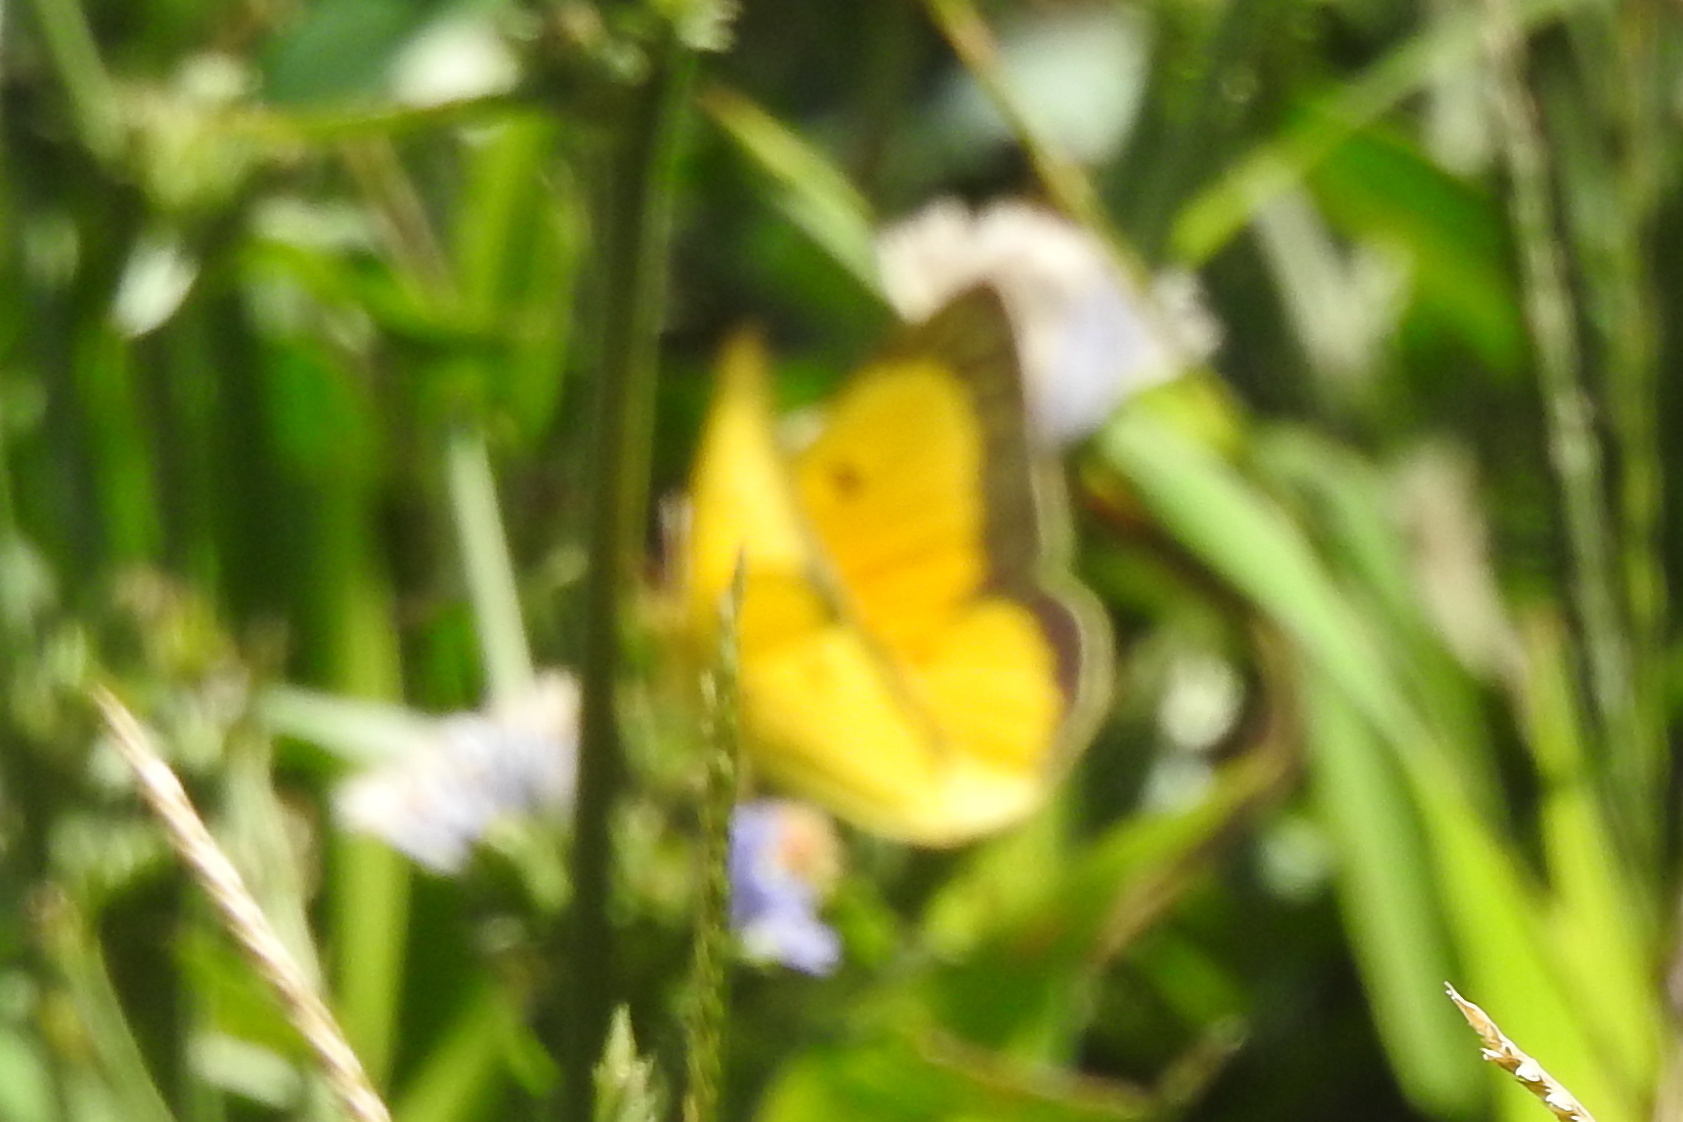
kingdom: Animalia
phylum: Arthropoda
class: Insecta
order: Lepidoptera
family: Pieridae
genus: Colias
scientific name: Colias eurytheme
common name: Alfalfa butterfly
